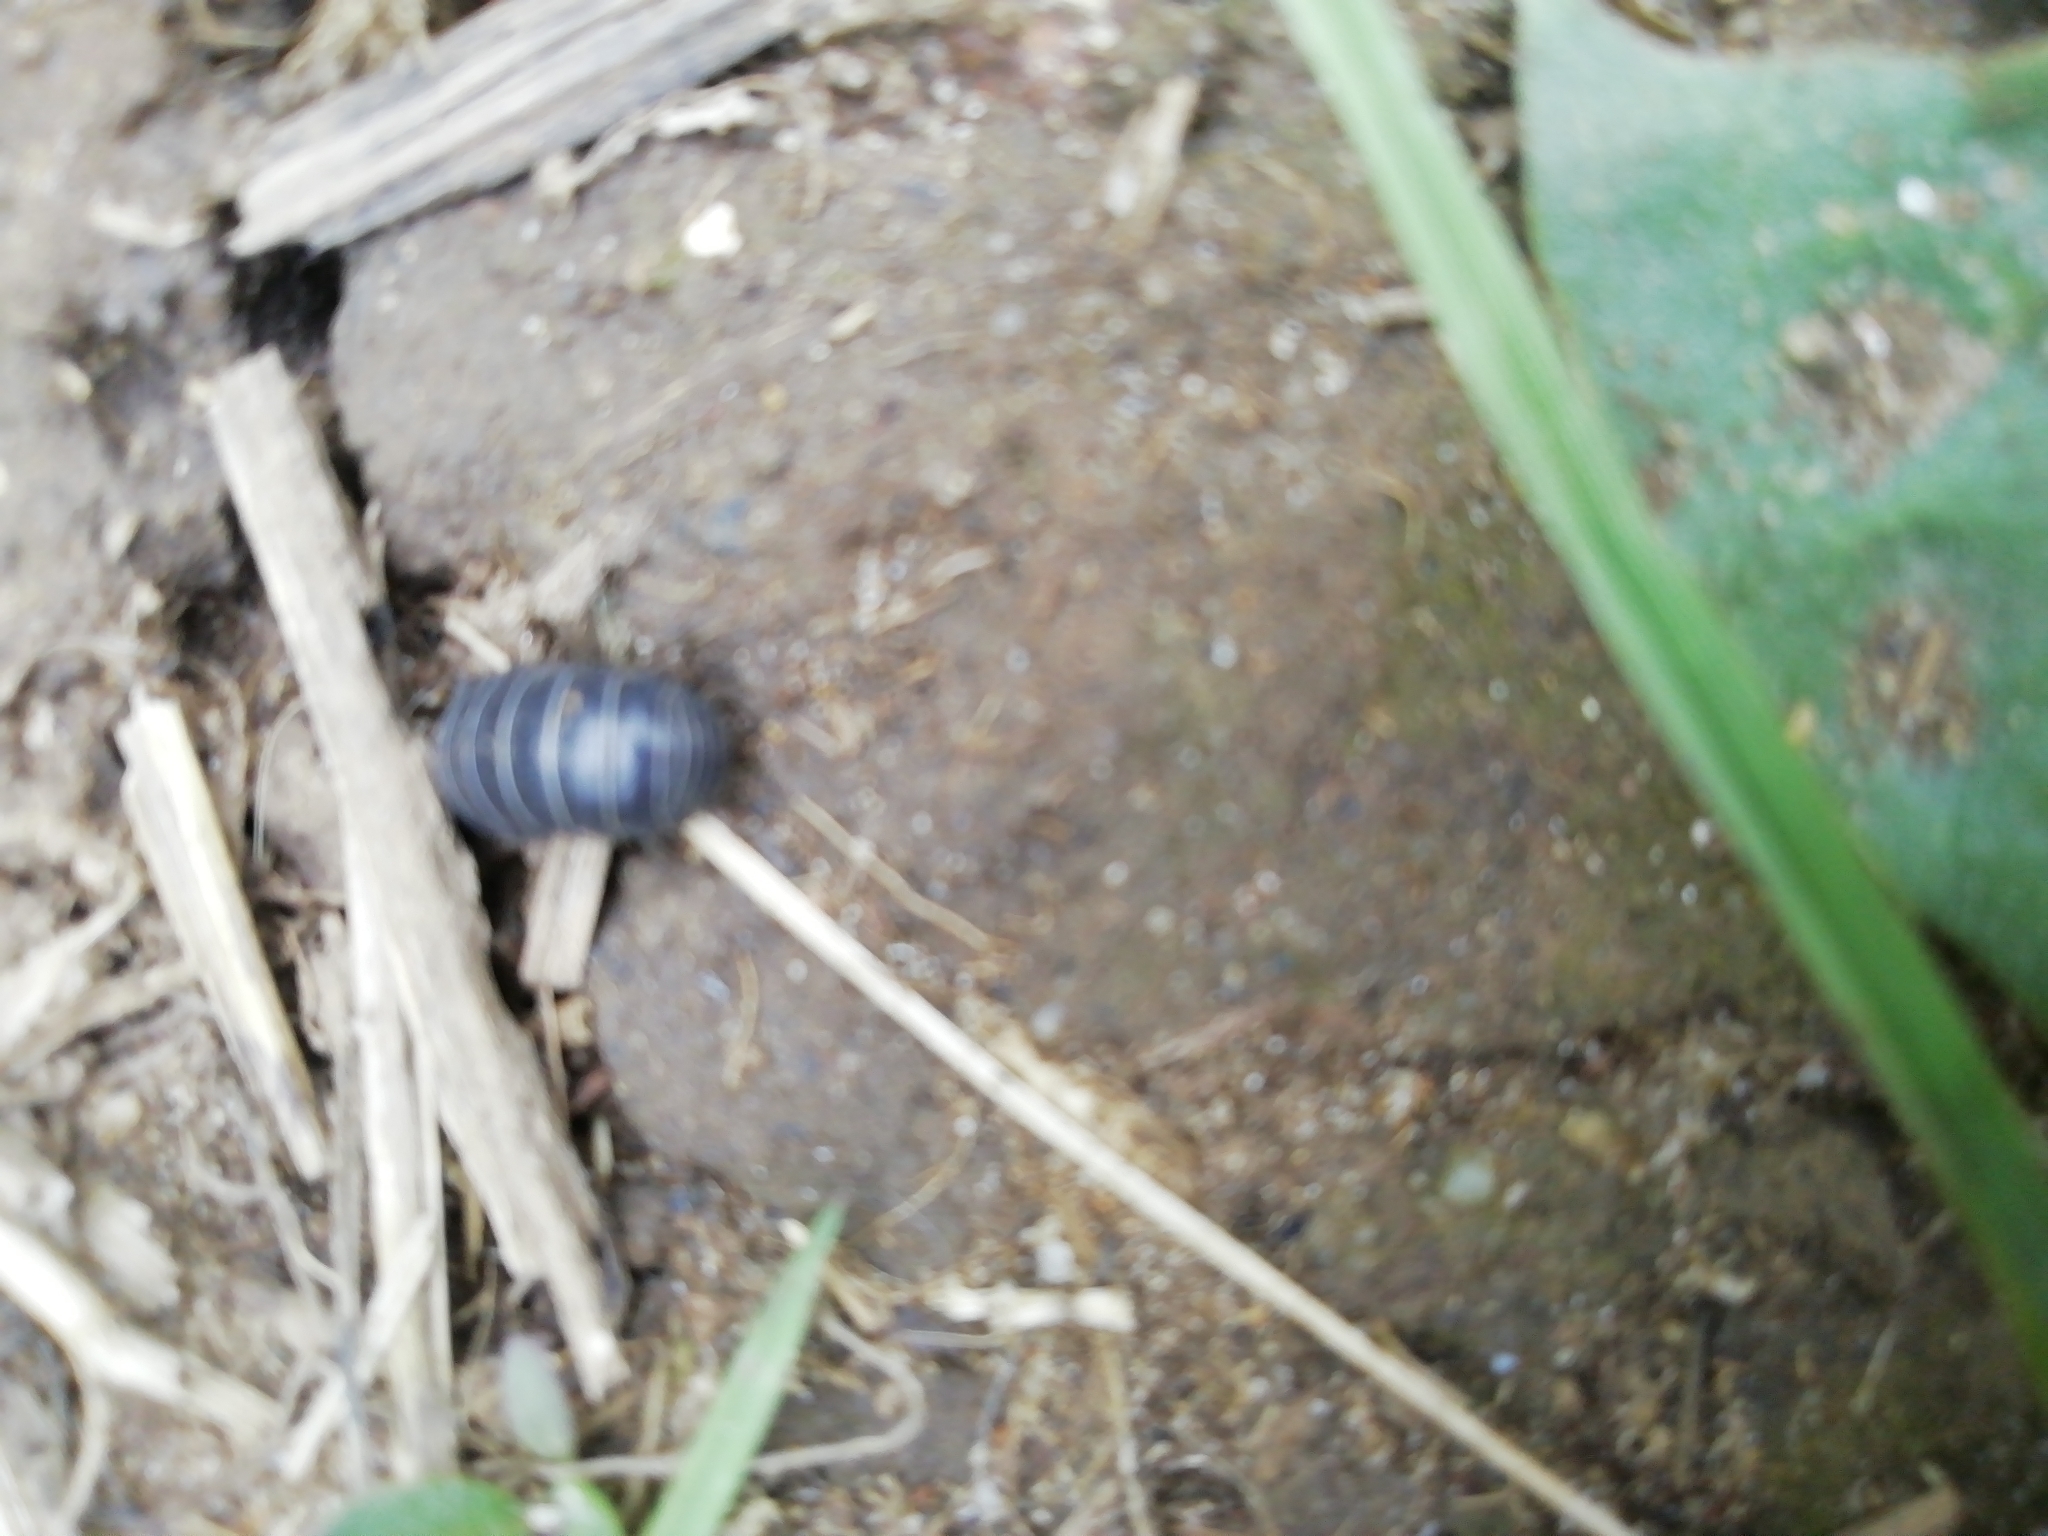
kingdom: Animalia
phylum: Arthropoda
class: Malacostraca
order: Isopoda
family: Armadillidiidae
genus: Armadillidium
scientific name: Armadillidium vulgare
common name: Common pill woodlouse
